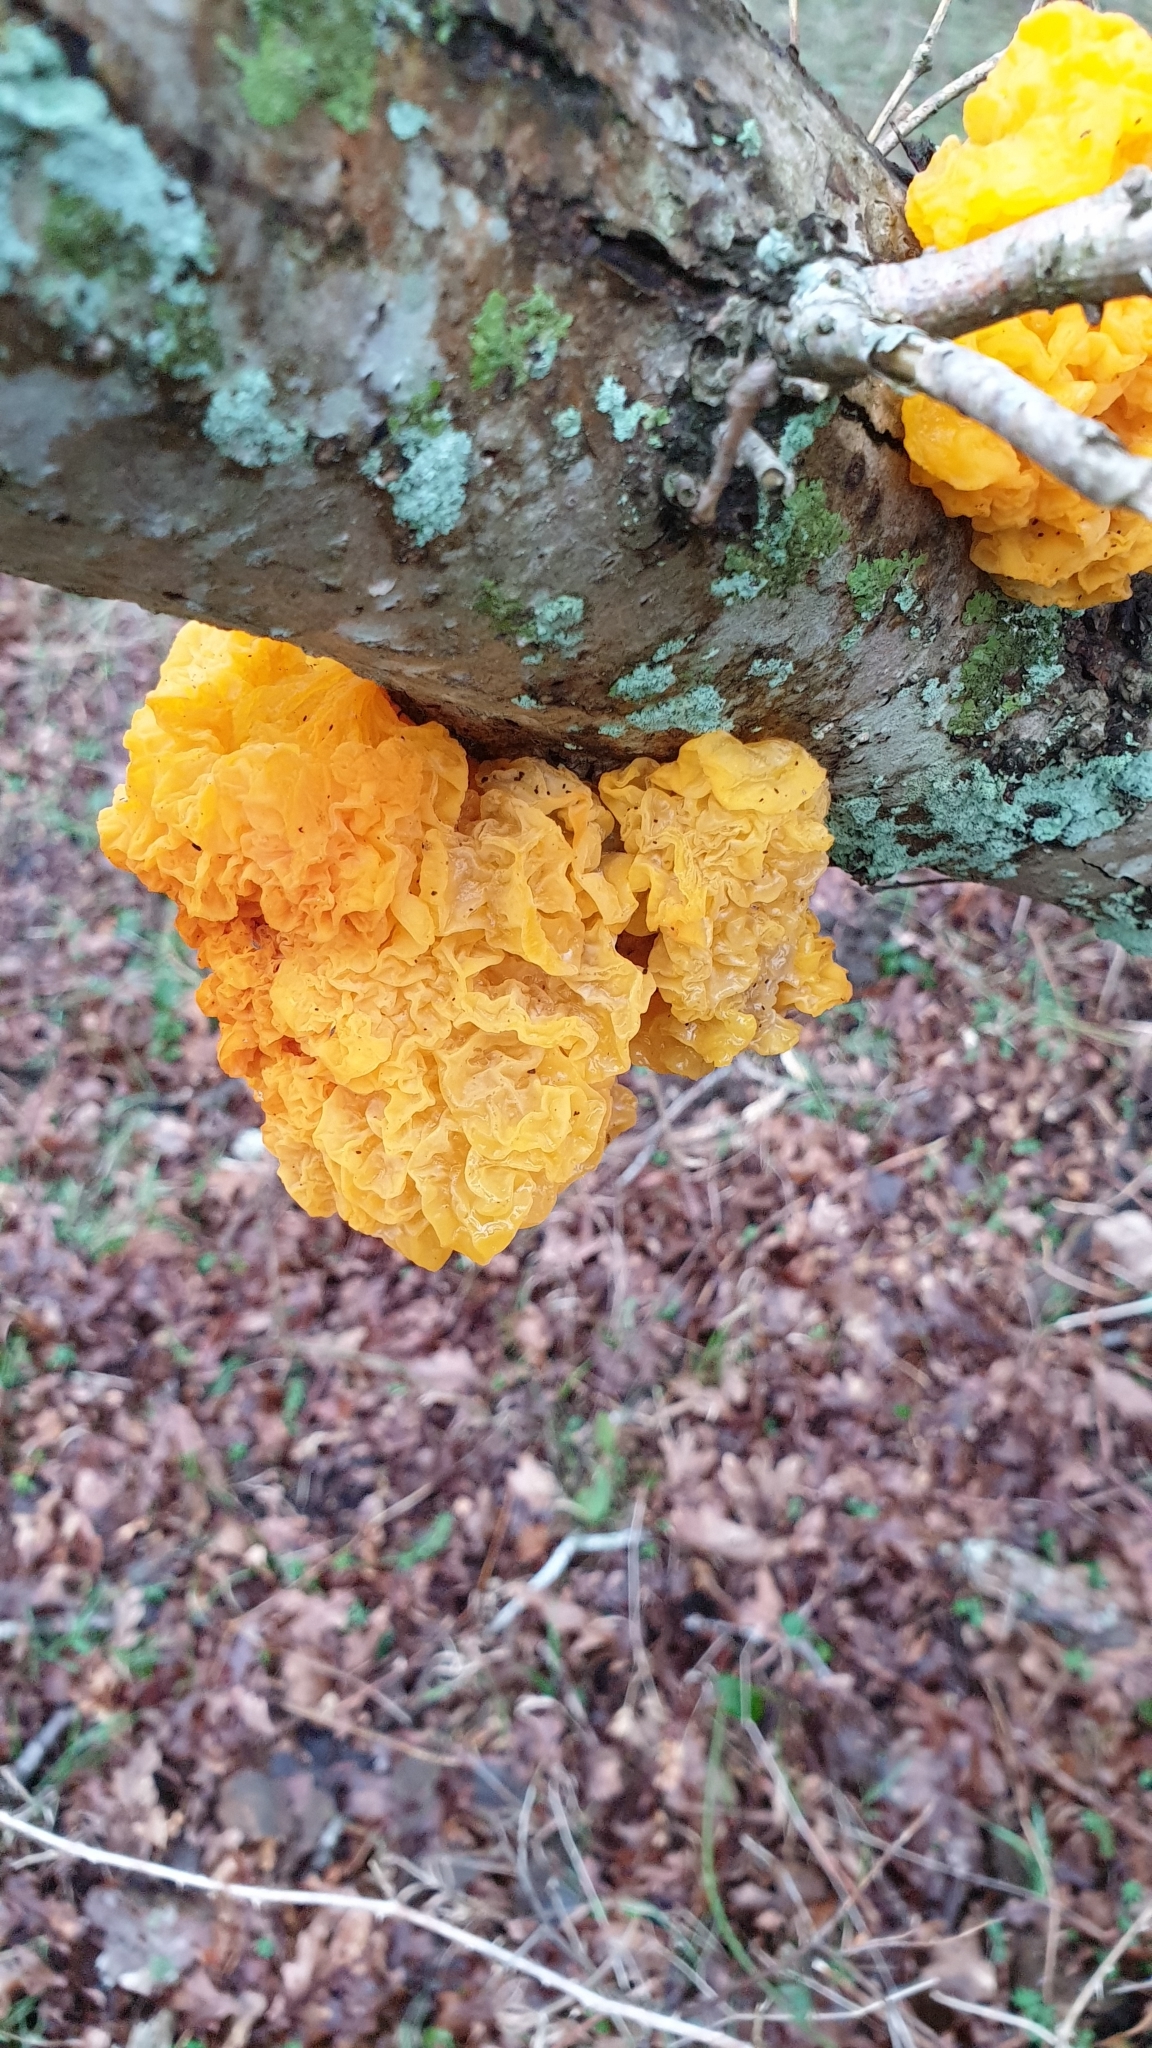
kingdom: Fungi
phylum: Basidiomycota
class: Tremellomycetes
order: Tremellales
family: Tremellaceae
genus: Tremella
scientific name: Tremella mesenterica
